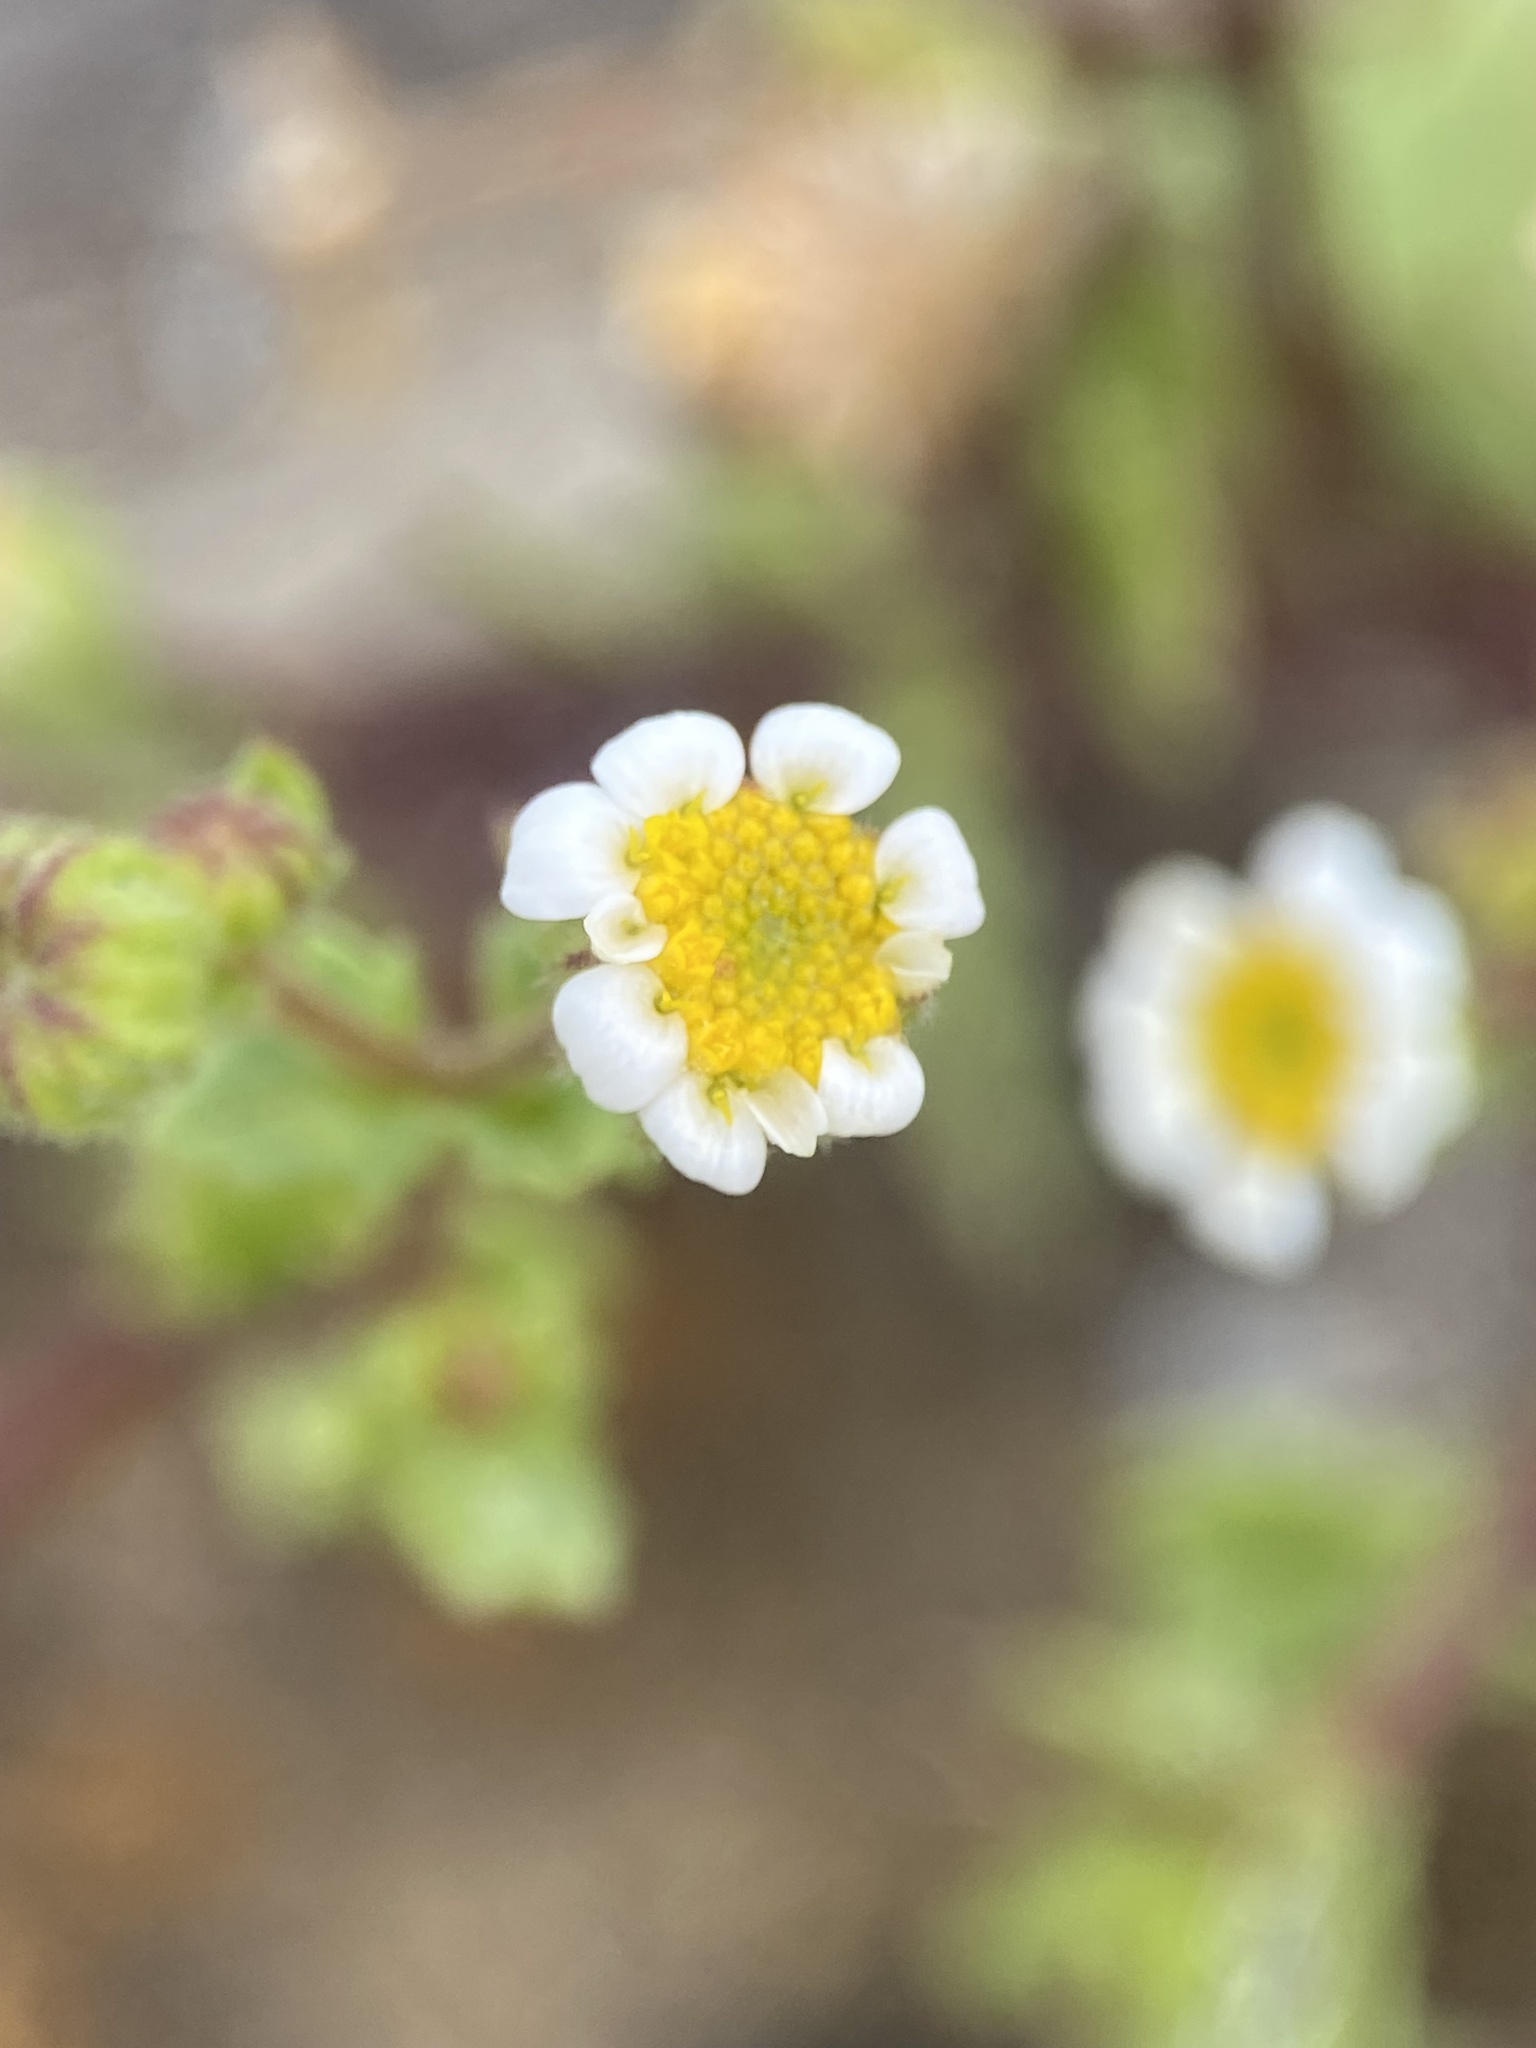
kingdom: Plantae
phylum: Tracheophyta
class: Magnoliopsida
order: Asterales
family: Asteraceae
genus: Laphamia
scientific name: Laphamia emoryi
